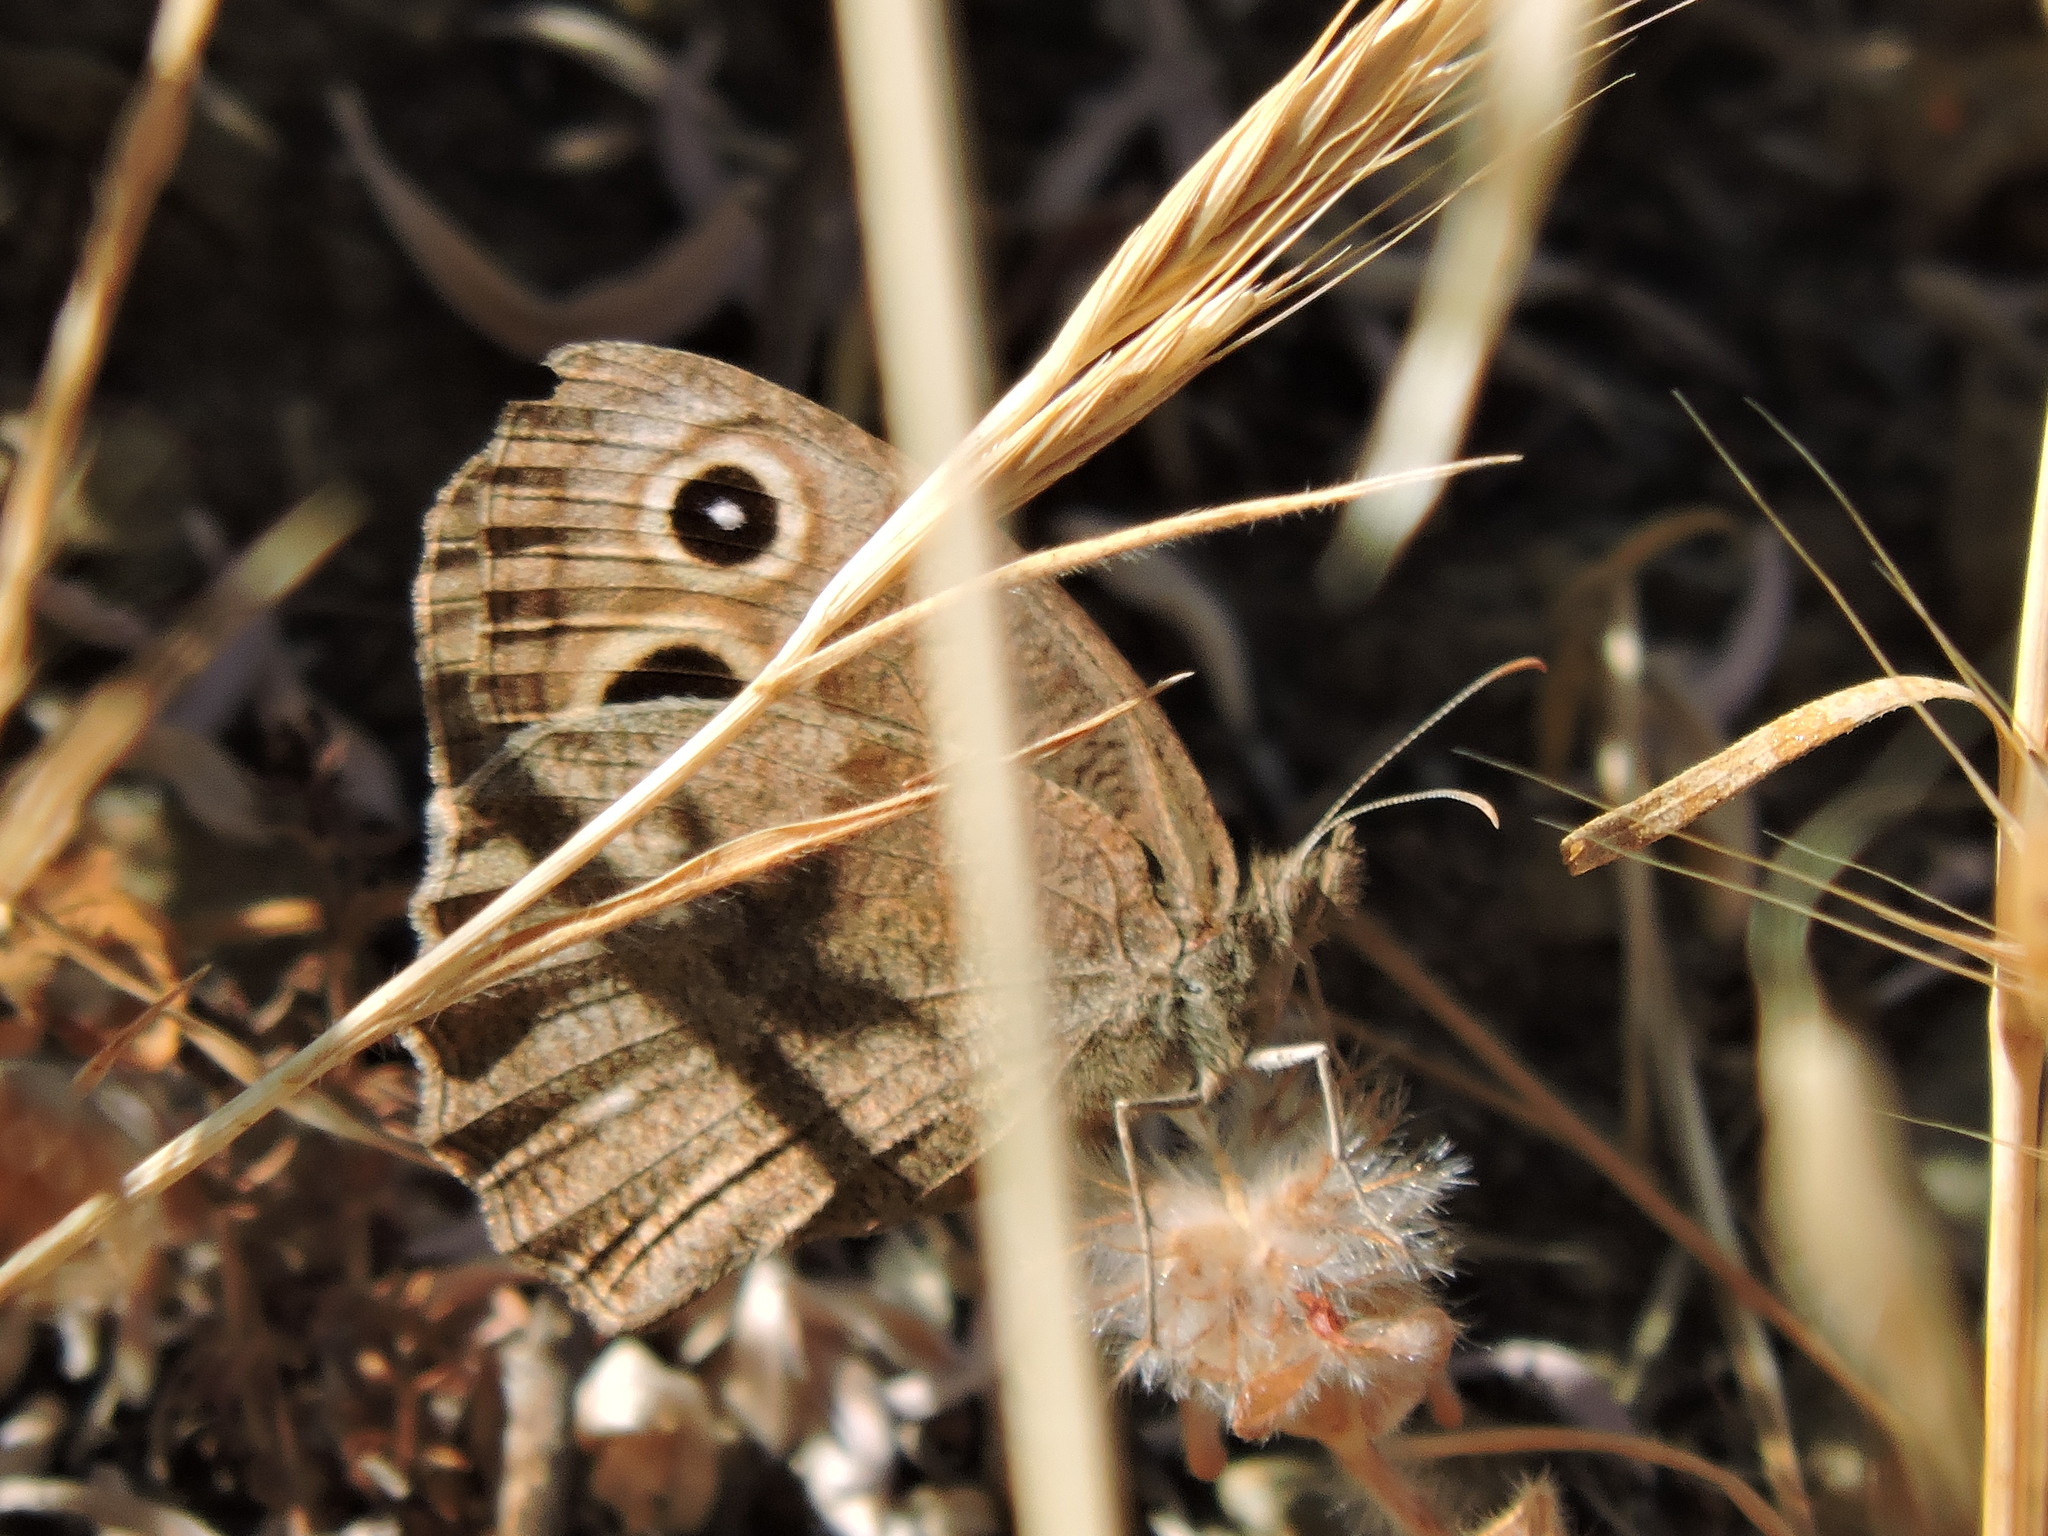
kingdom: Animalia
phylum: Arthropoda
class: Insecta
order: Lepidoptera
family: Nymphalidae
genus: Cercyonis
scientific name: Cercyonis pegala
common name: Common wood-nymph
